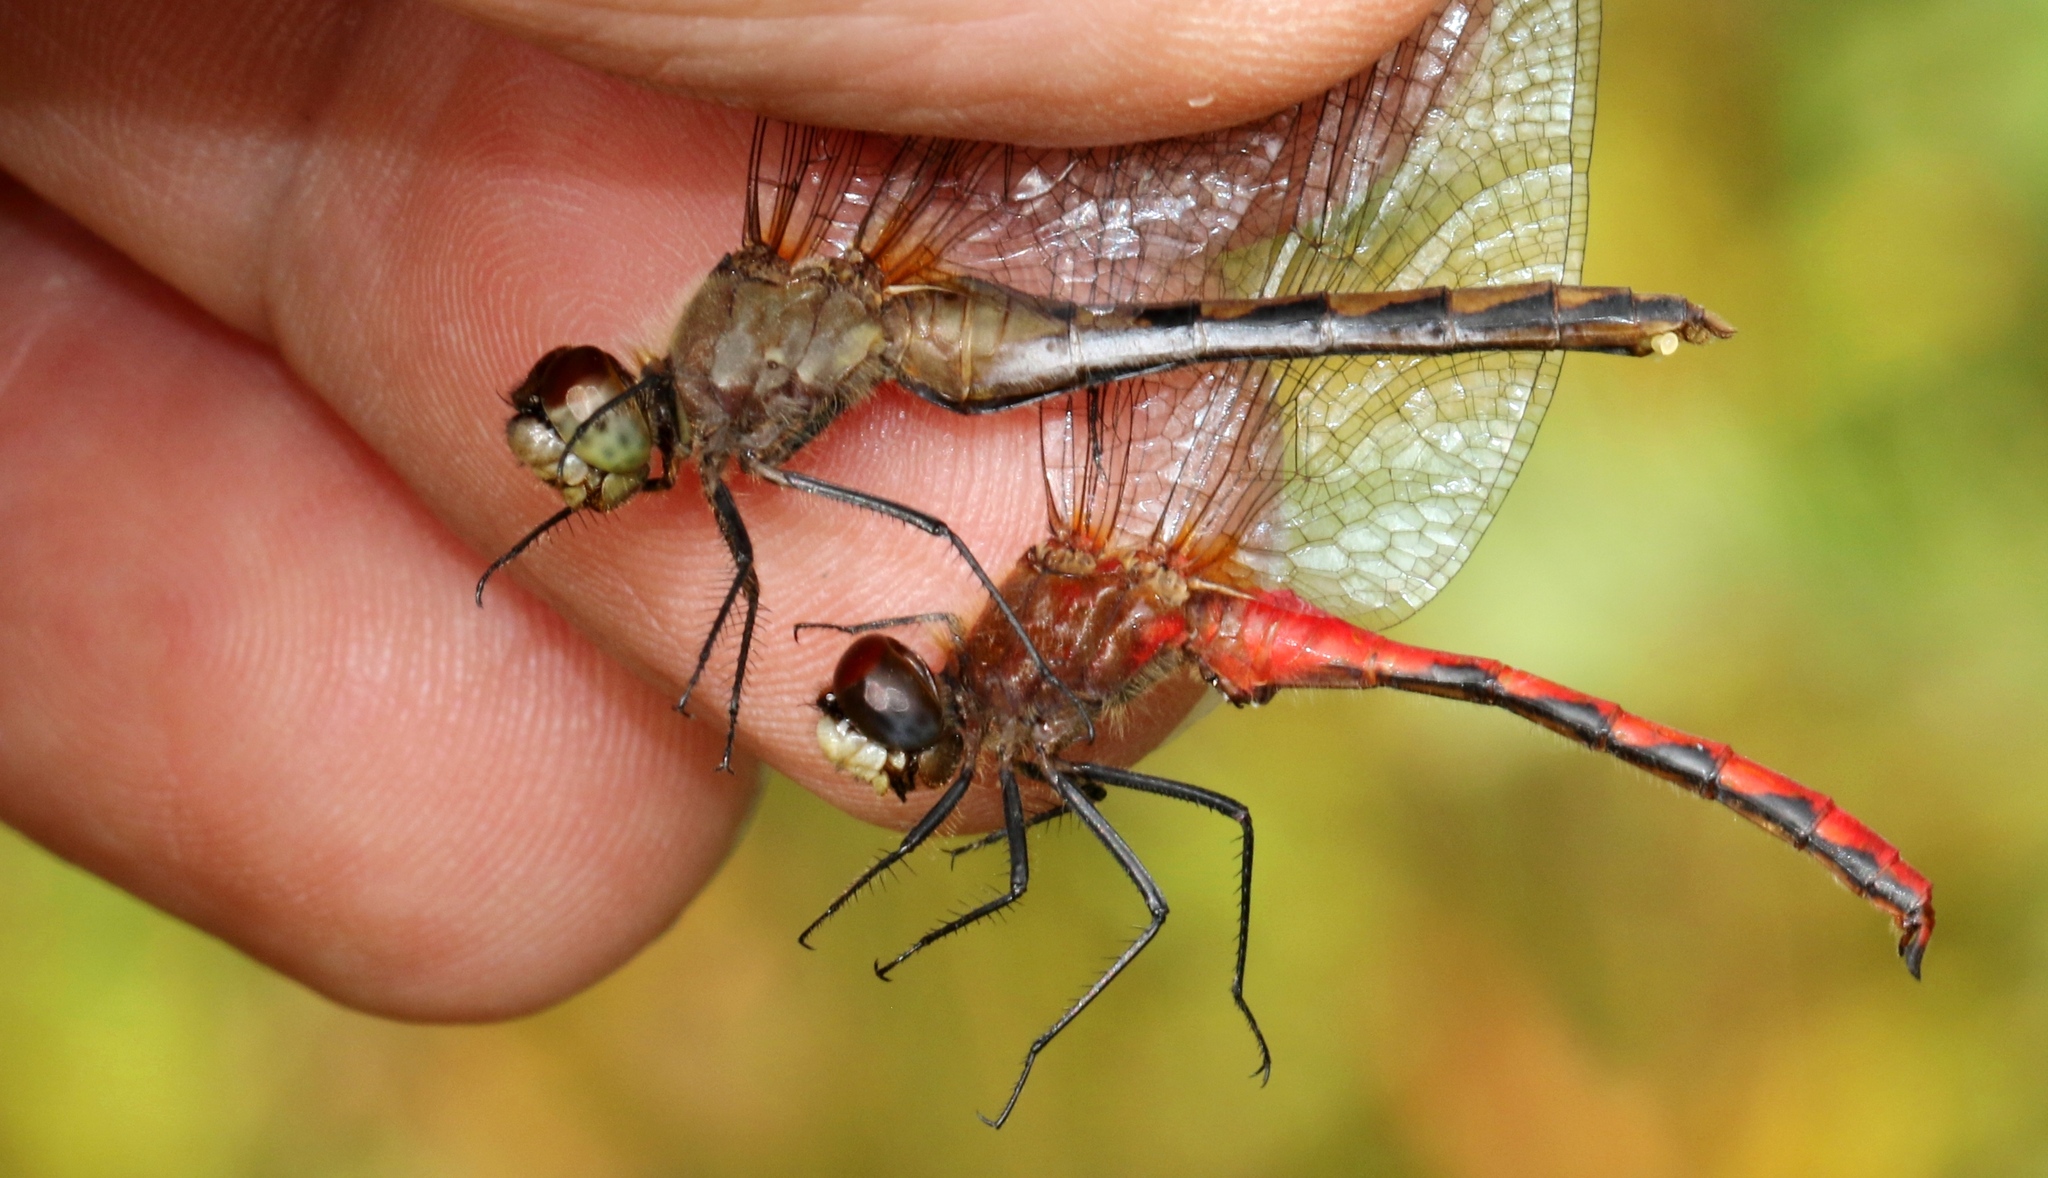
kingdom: Animalia
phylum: Arthropoda
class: Insecta
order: Odonata
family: Libellulidae
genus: Sympetrum
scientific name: Sympetrum obtrusum
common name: White-faced meadowhawk
